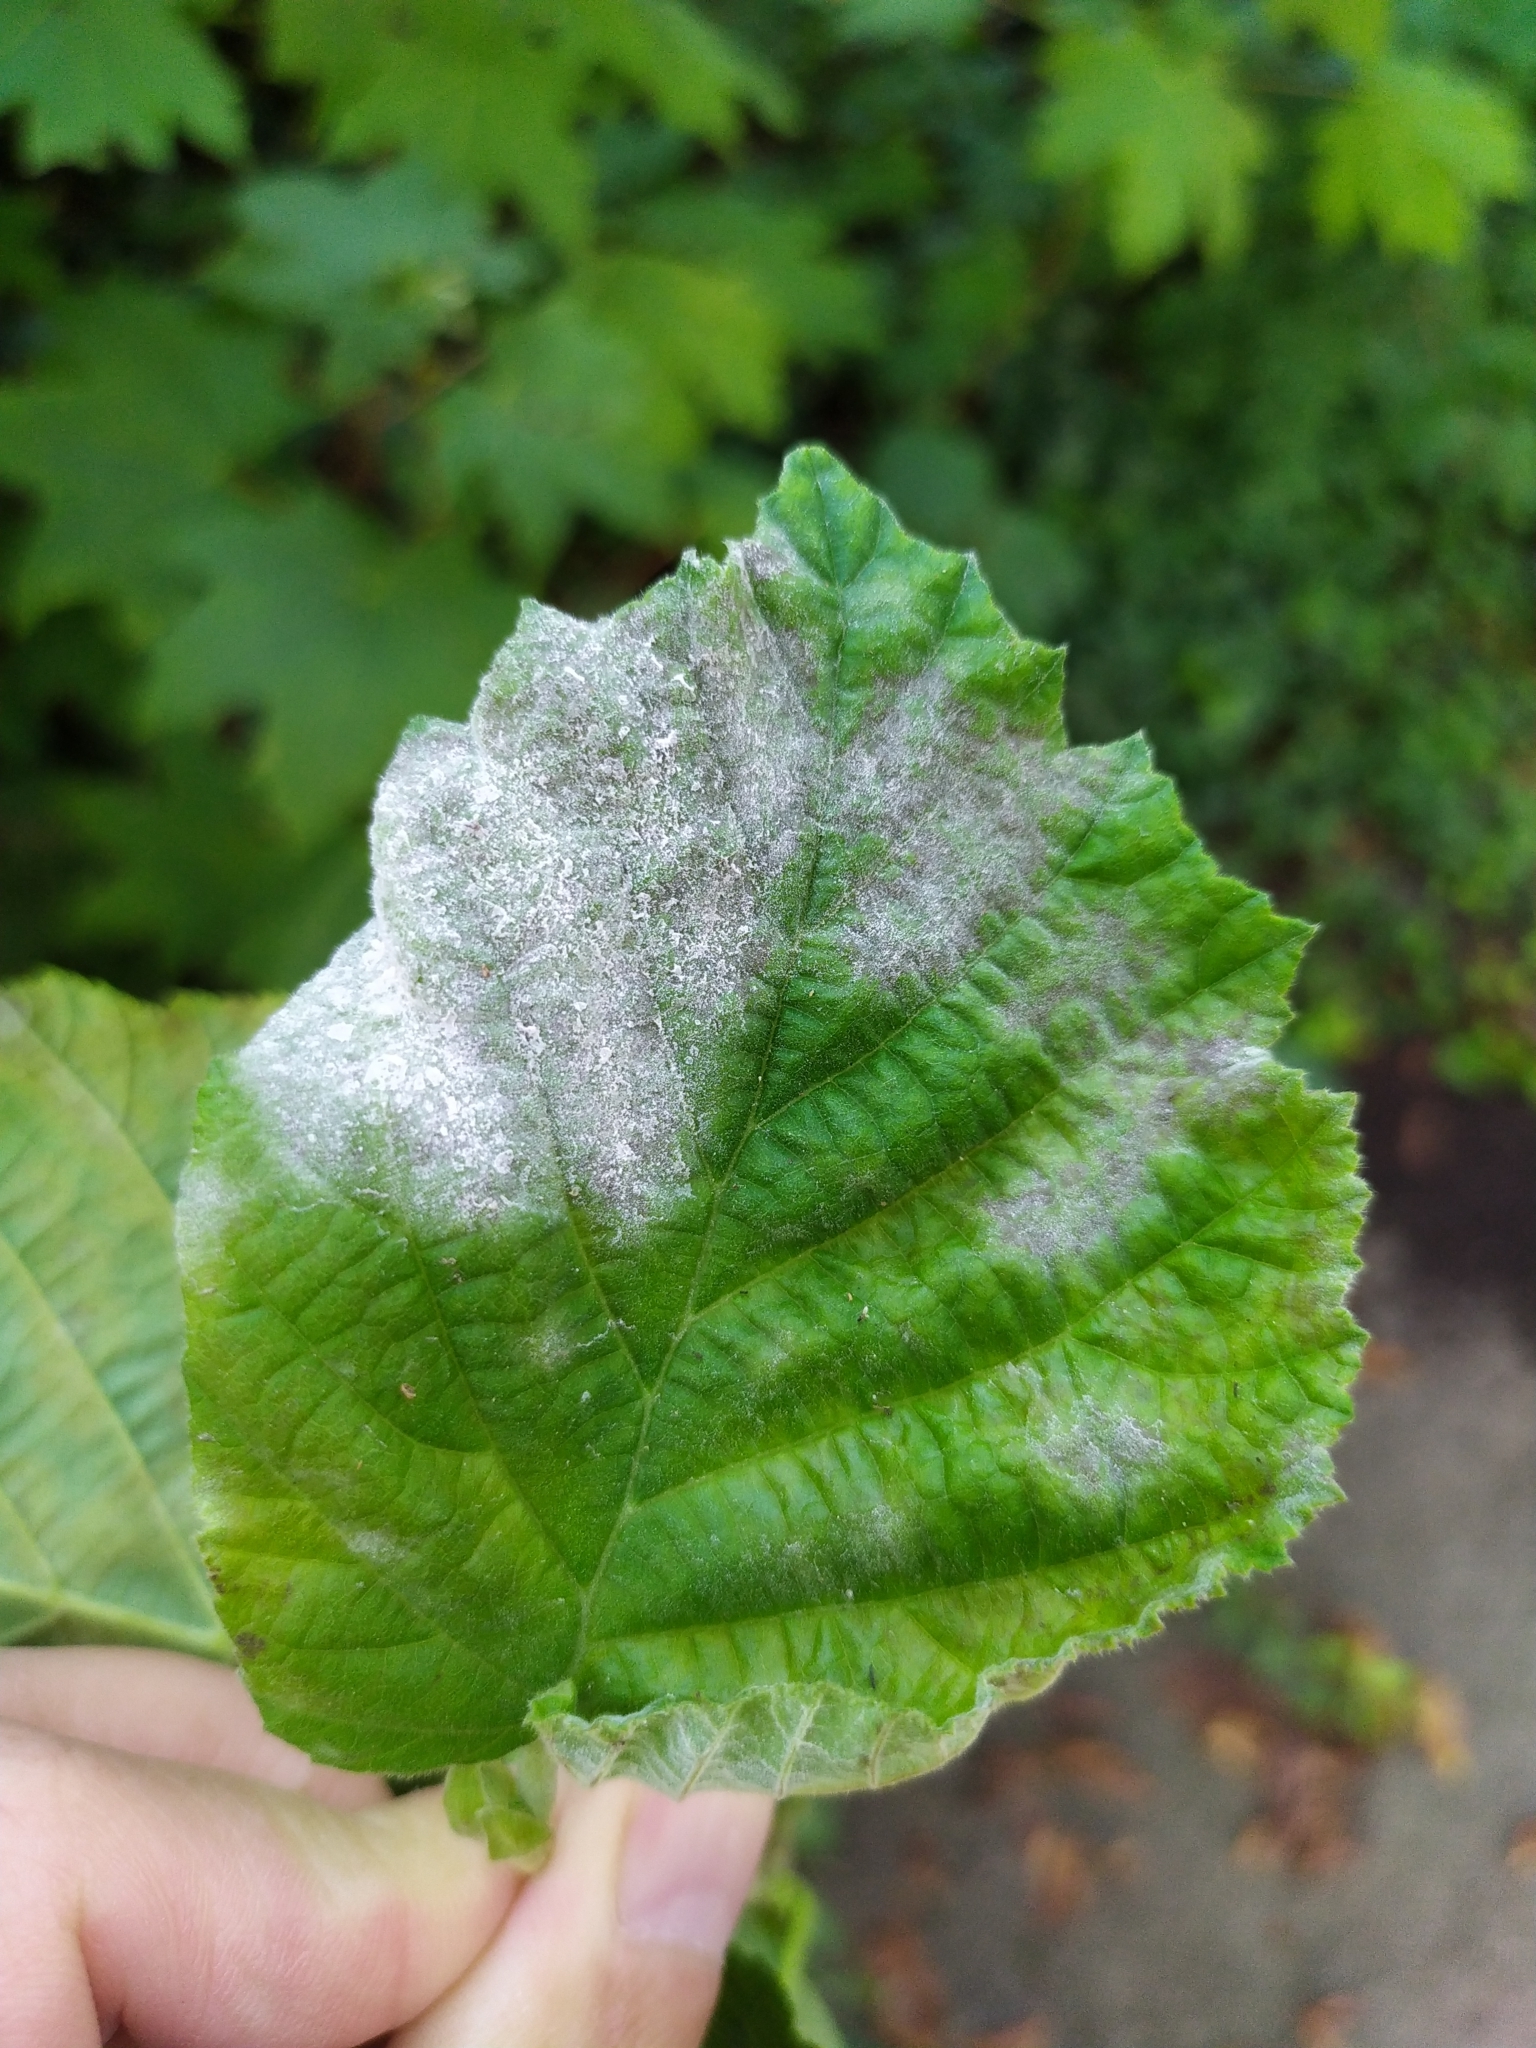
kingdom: Fungi
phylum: Ascomycota
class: Leotiomycetes
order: Helotiales
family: Erysiphaceae
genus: Erysiphe
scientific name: Erysiphe corylacearum
